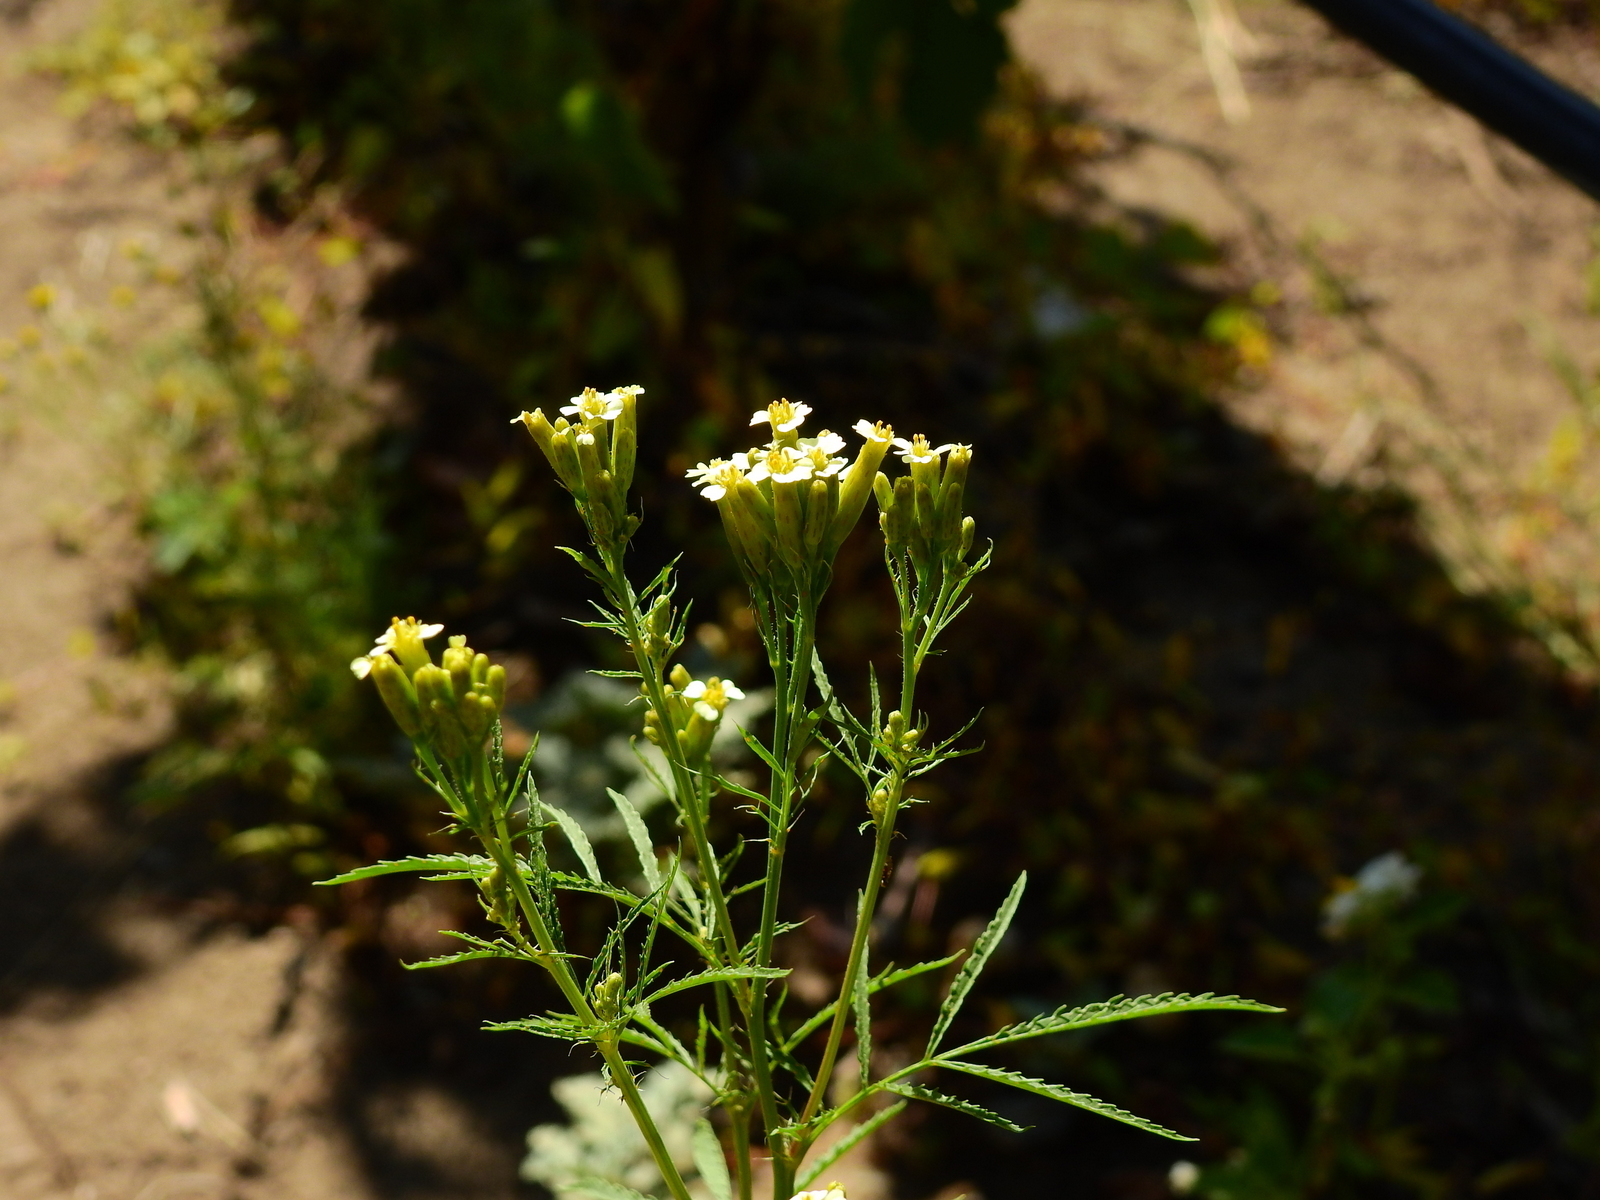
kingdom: Plantae
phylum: Tracheophyta
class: Magnoliopsida
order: Asterales
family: Asteraceae
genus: Tagetes
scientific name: Tagetes minuta
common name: Muster john henry
